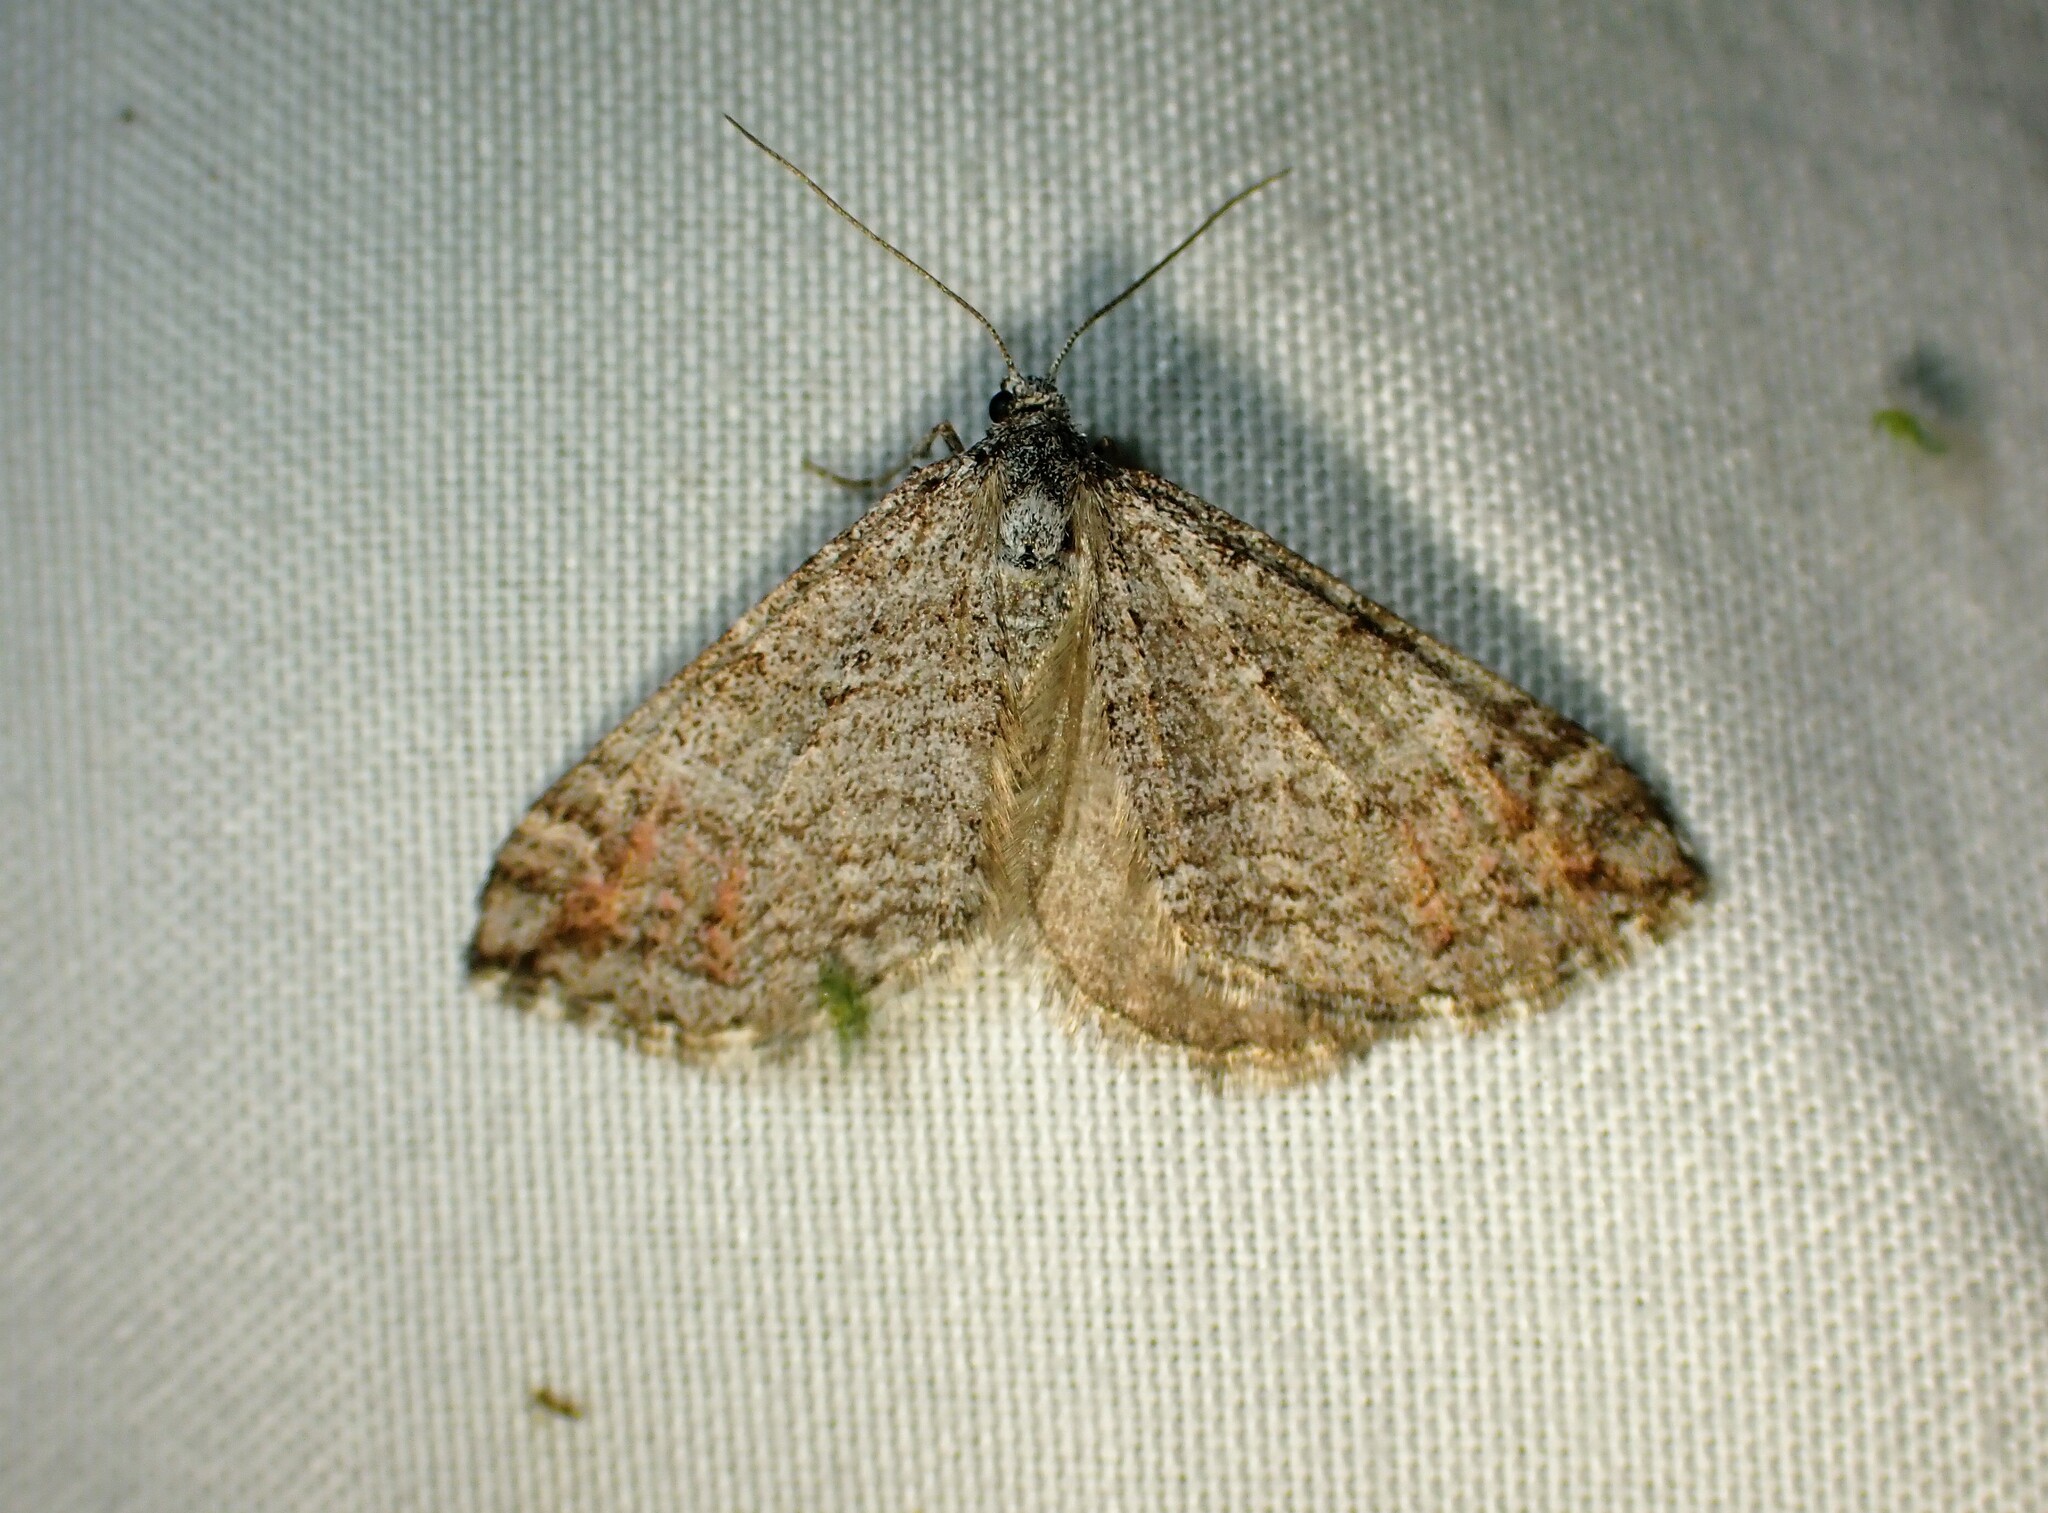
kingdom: Animalia
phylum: Arthropoda
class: Insecta
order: Lepidoptera
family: Geometridae
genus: Carsia
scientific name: Carsia sororiata
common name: Manchester treble-bar
